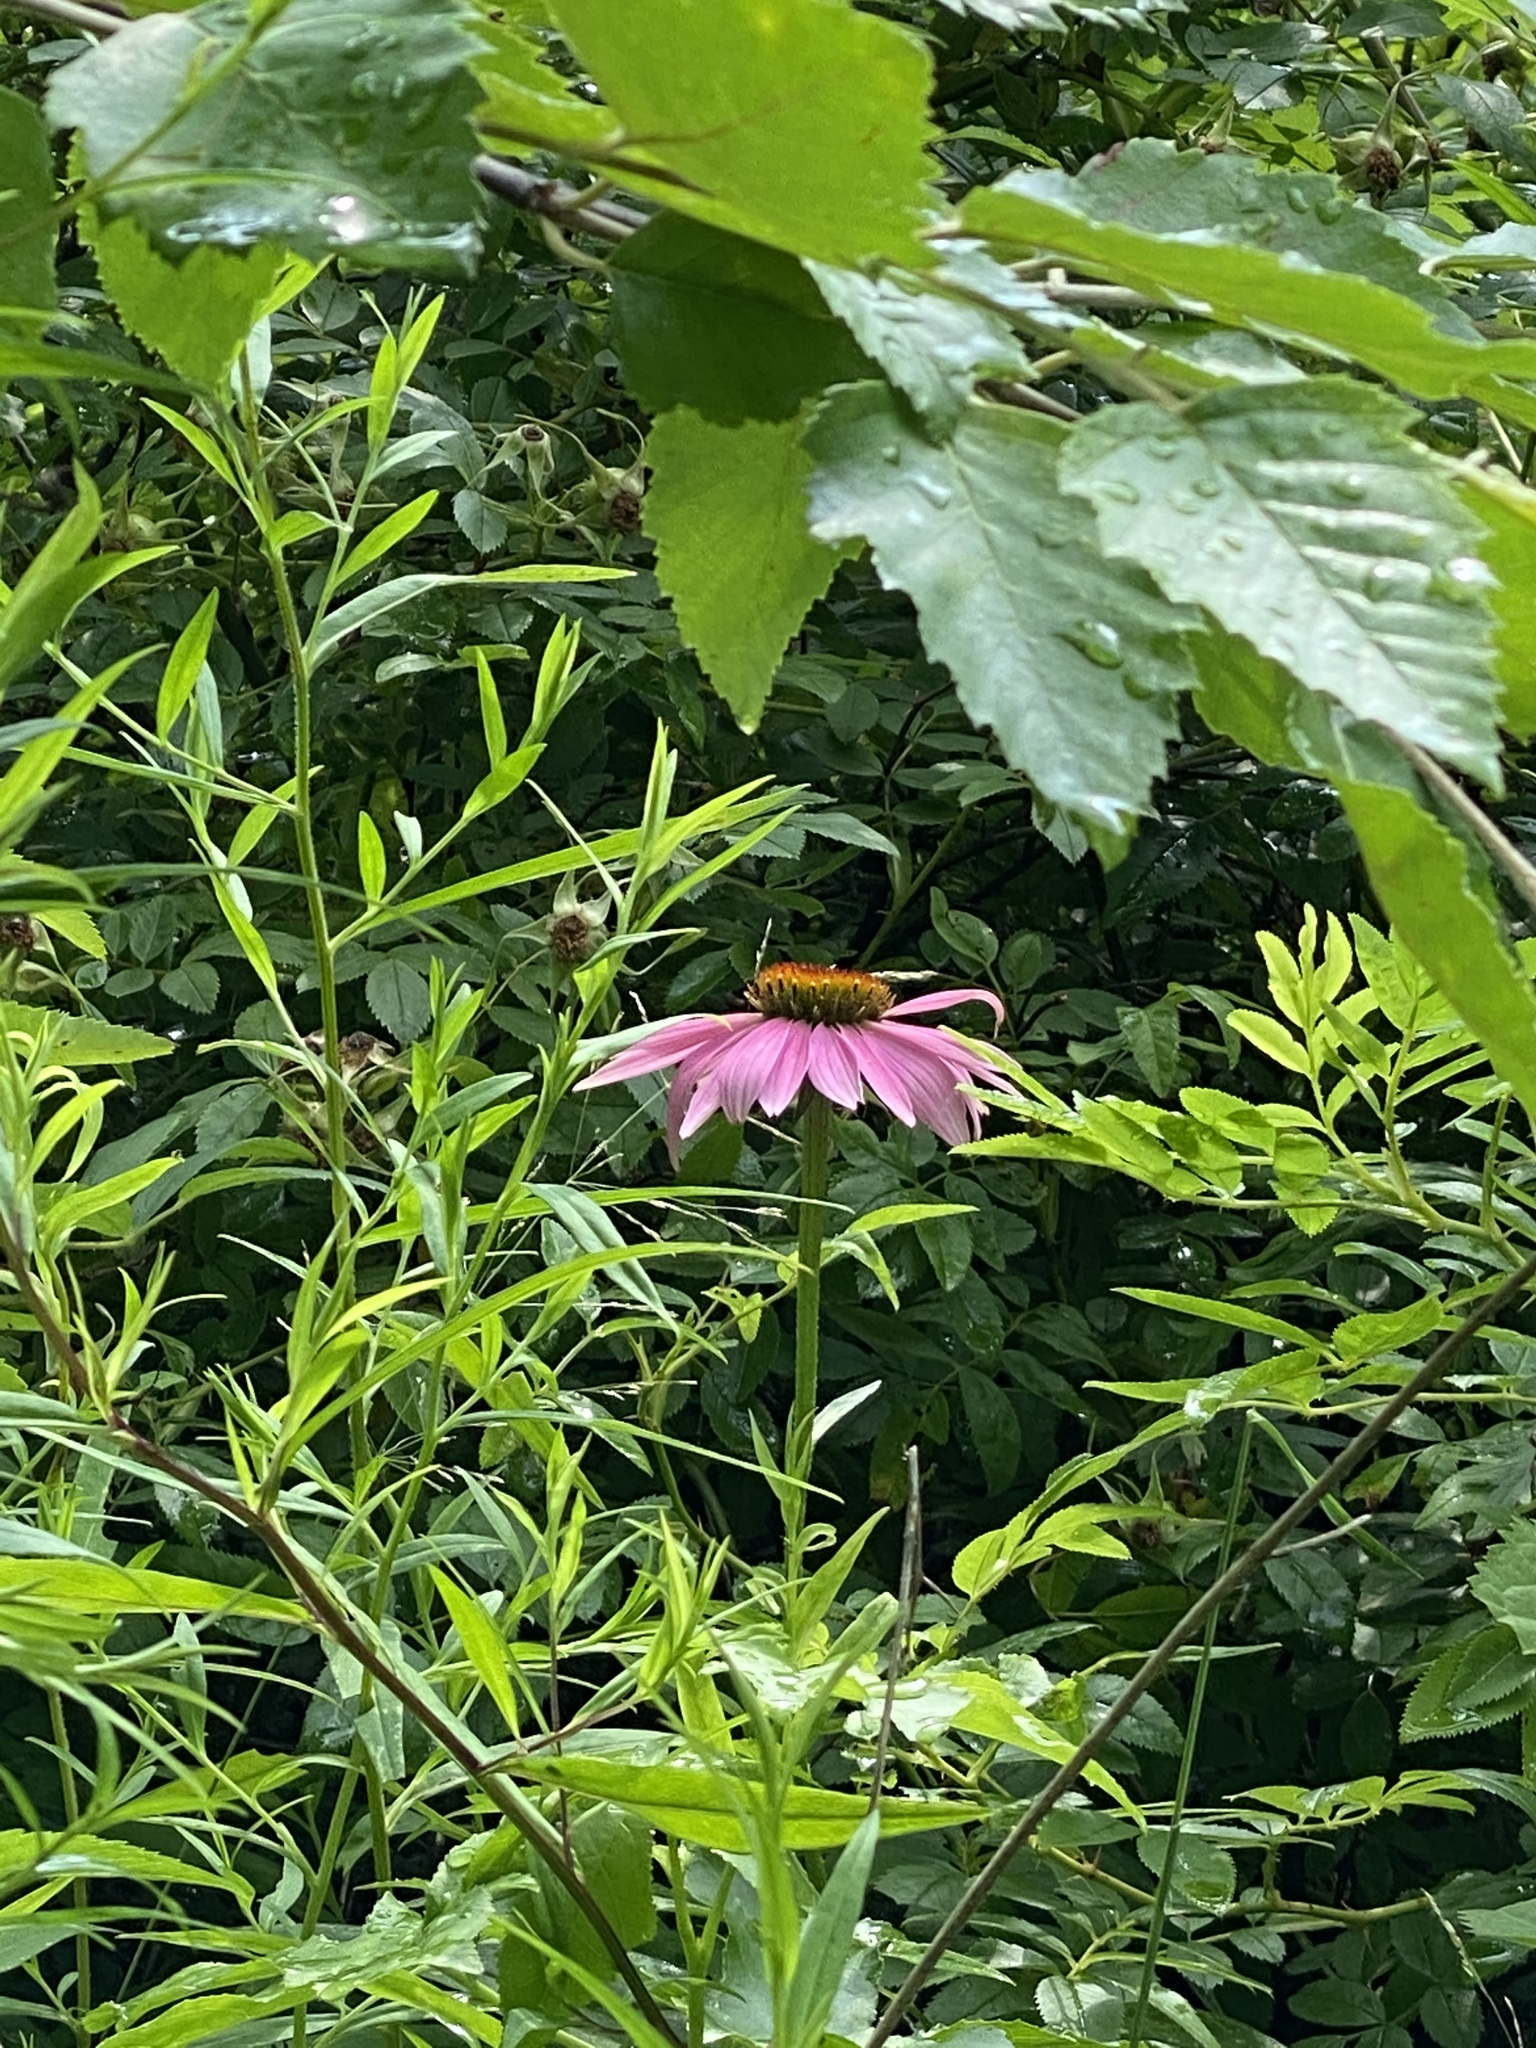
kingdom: Plantae
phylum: Tracheophyta
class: Magnoliopsida
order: Asterales
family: Asteraceae
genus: Echinacea
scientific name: Echinacea purpurea
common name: Broad-leaved purple coneflower
